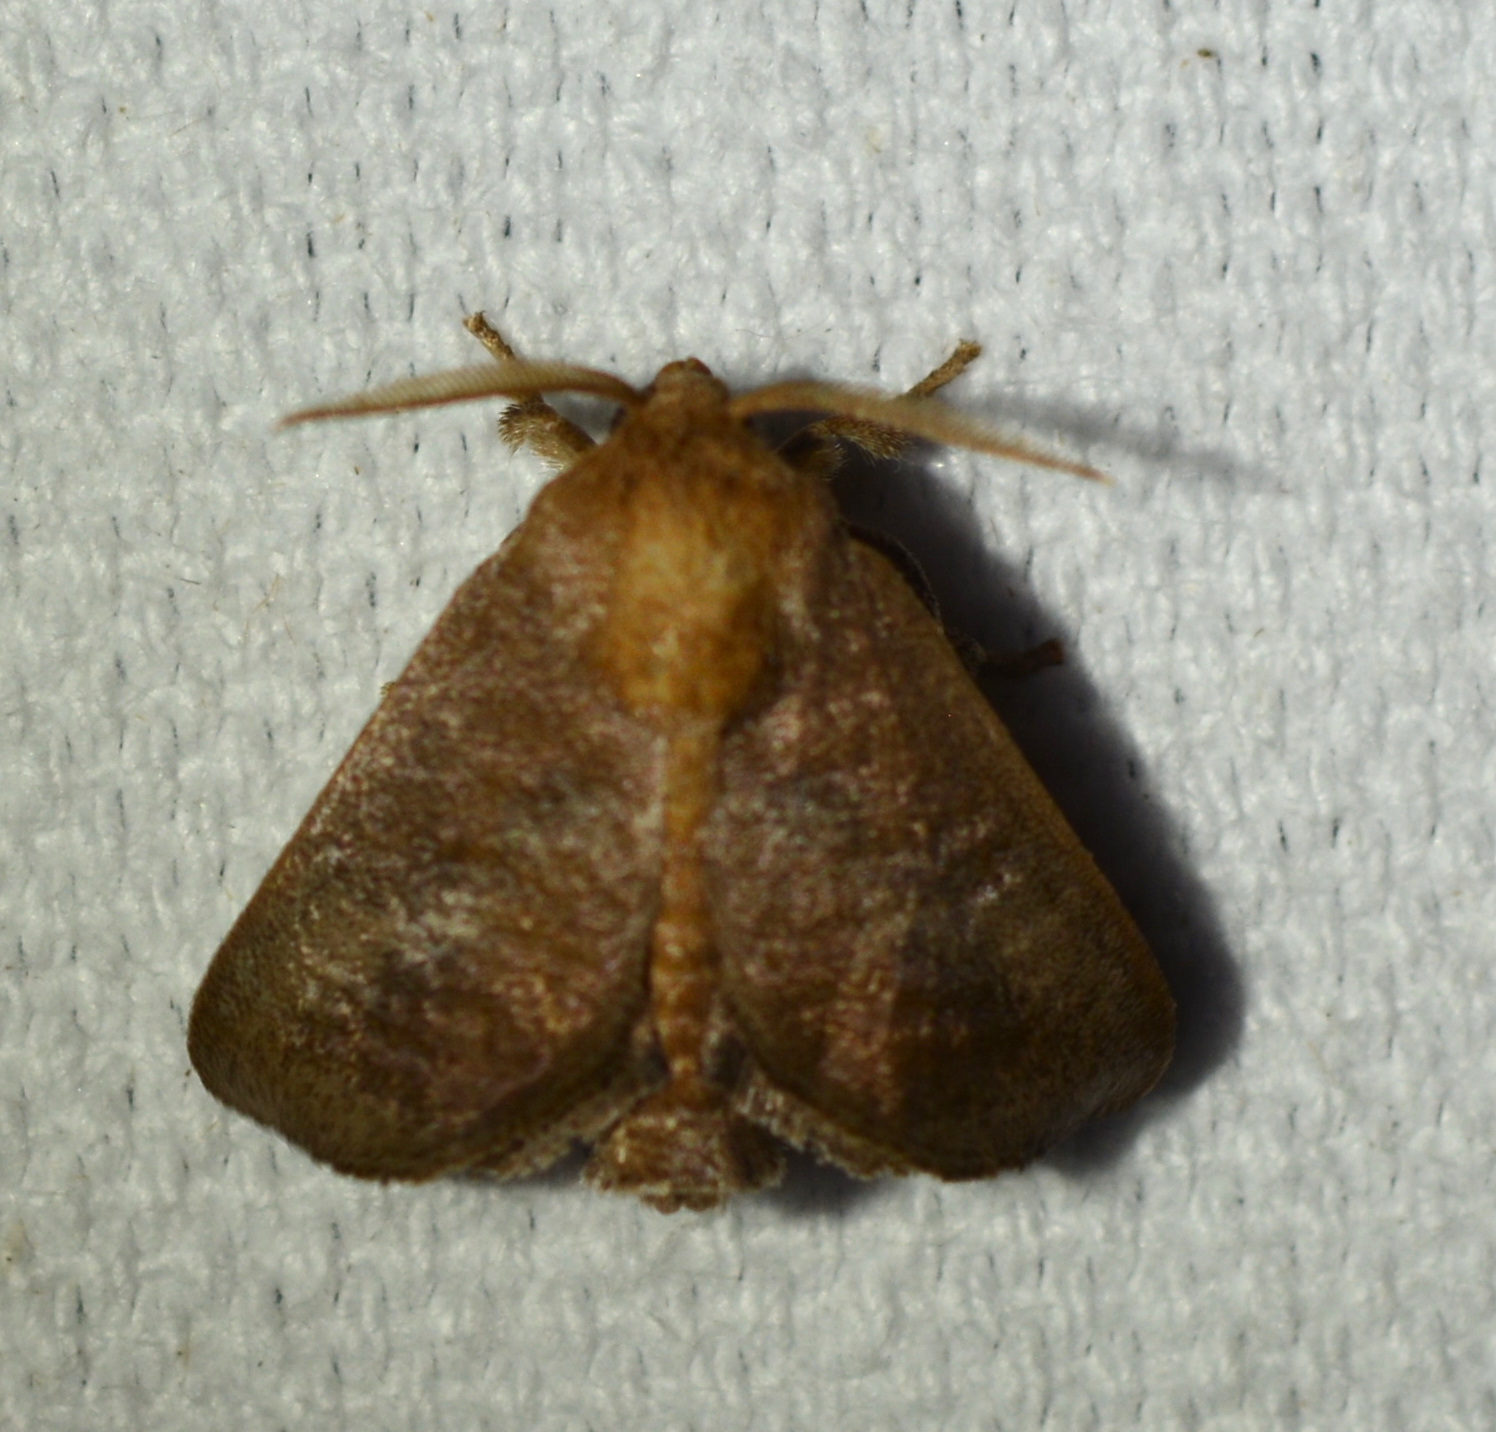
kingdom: Animalia
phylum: Arthropoda
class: Insecta
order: Lepidoptera
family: Limacodidae
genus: Isa
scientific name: Isa textula
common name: Crowned slug moth
